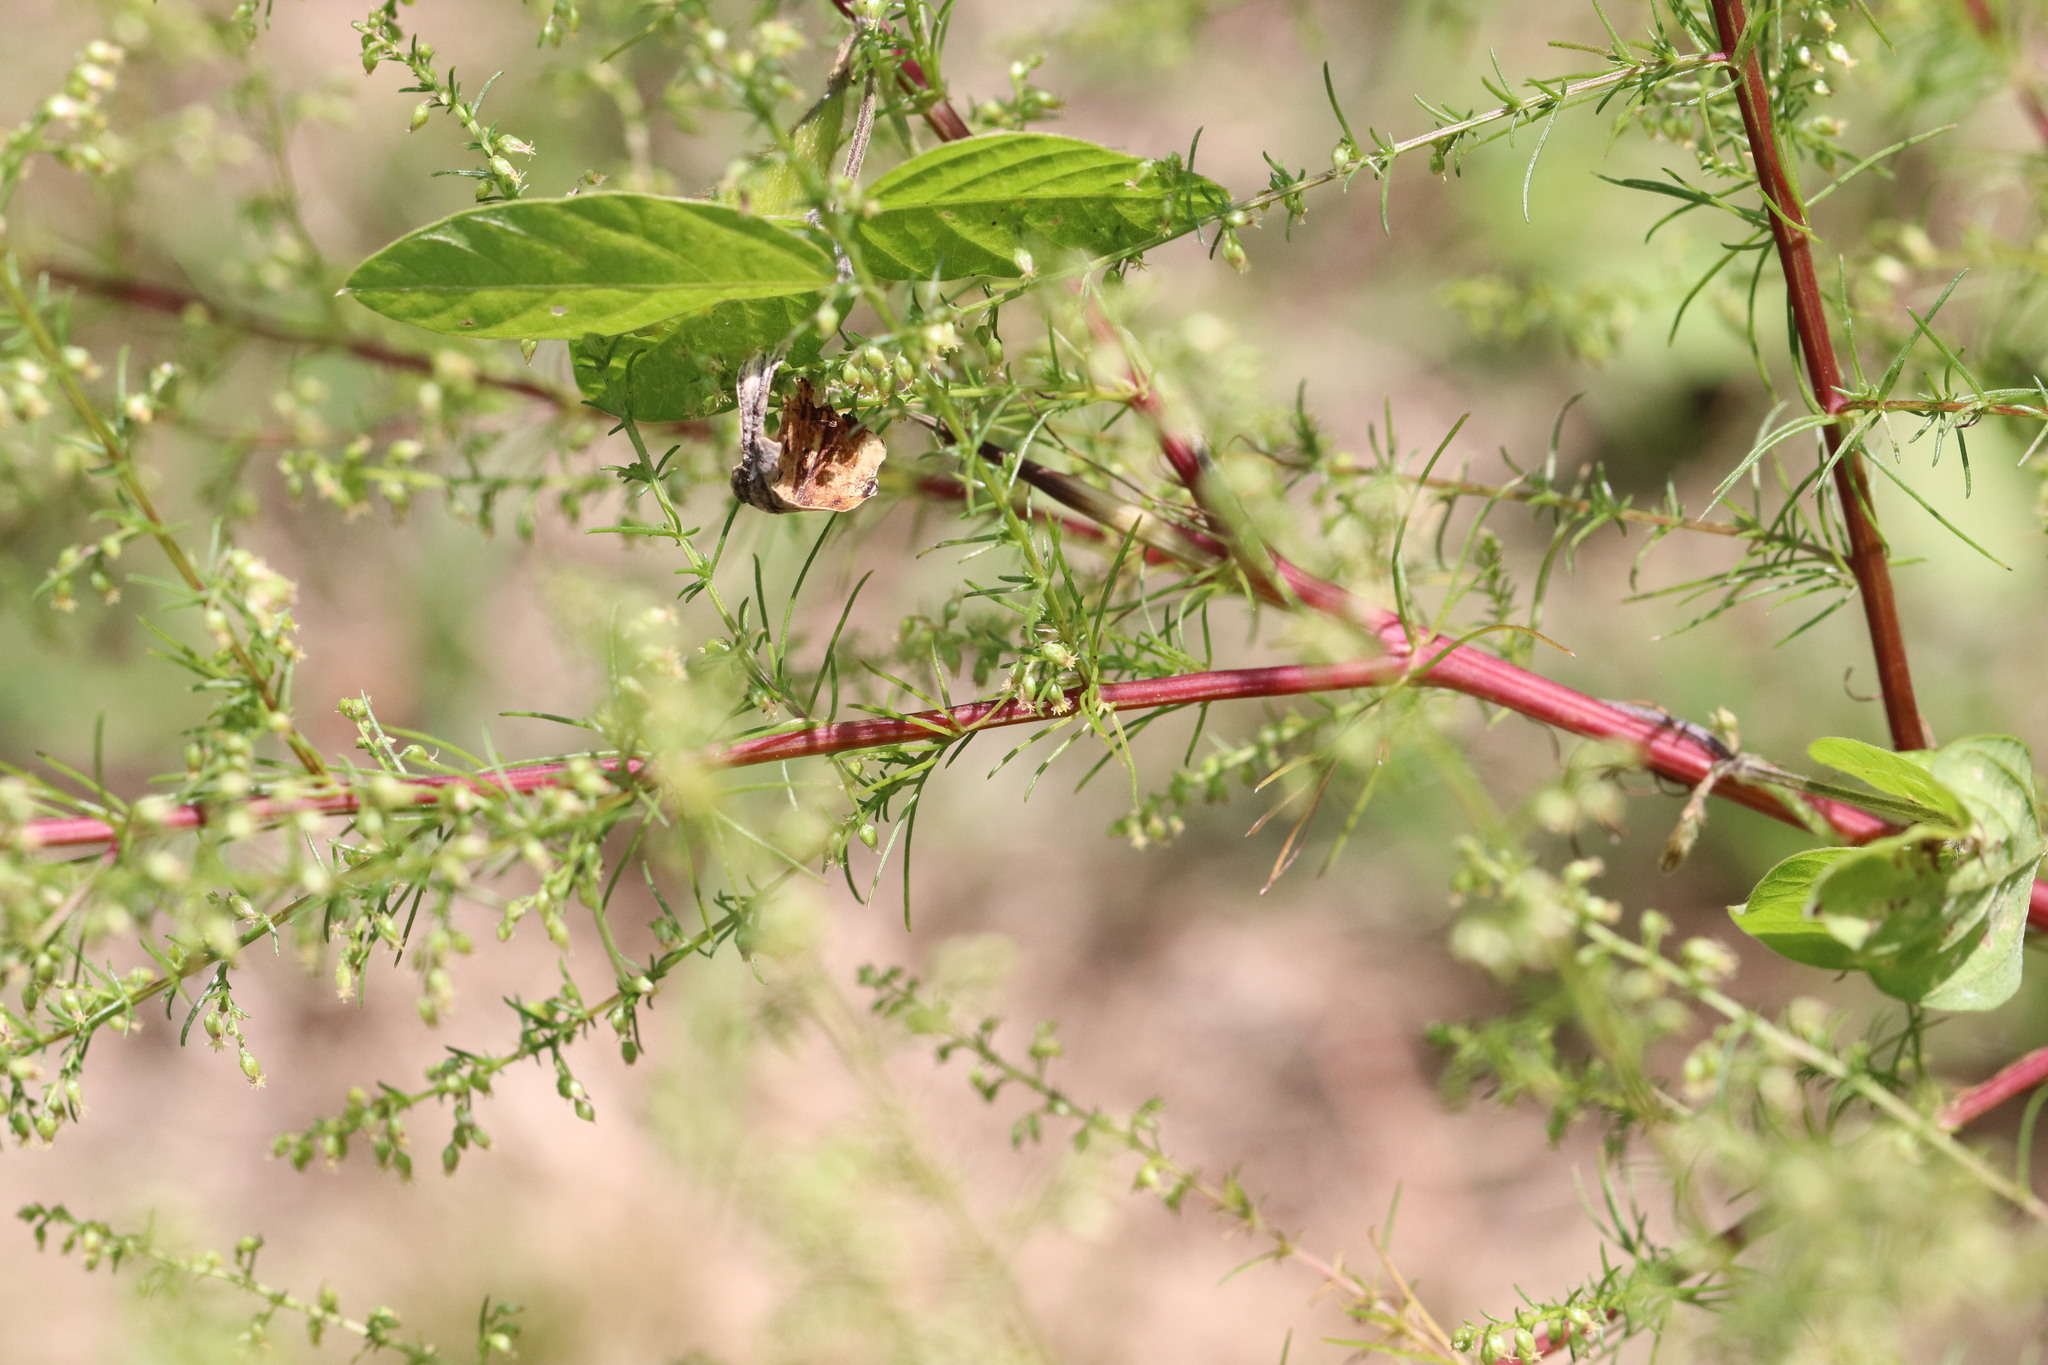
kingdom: Plantae
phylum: Tracheophyta
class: Magnoliopsida
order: Asterales
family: Asteraceae
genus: Artemisia
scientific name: Artemisia scoparia
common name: Redstem wormwood
